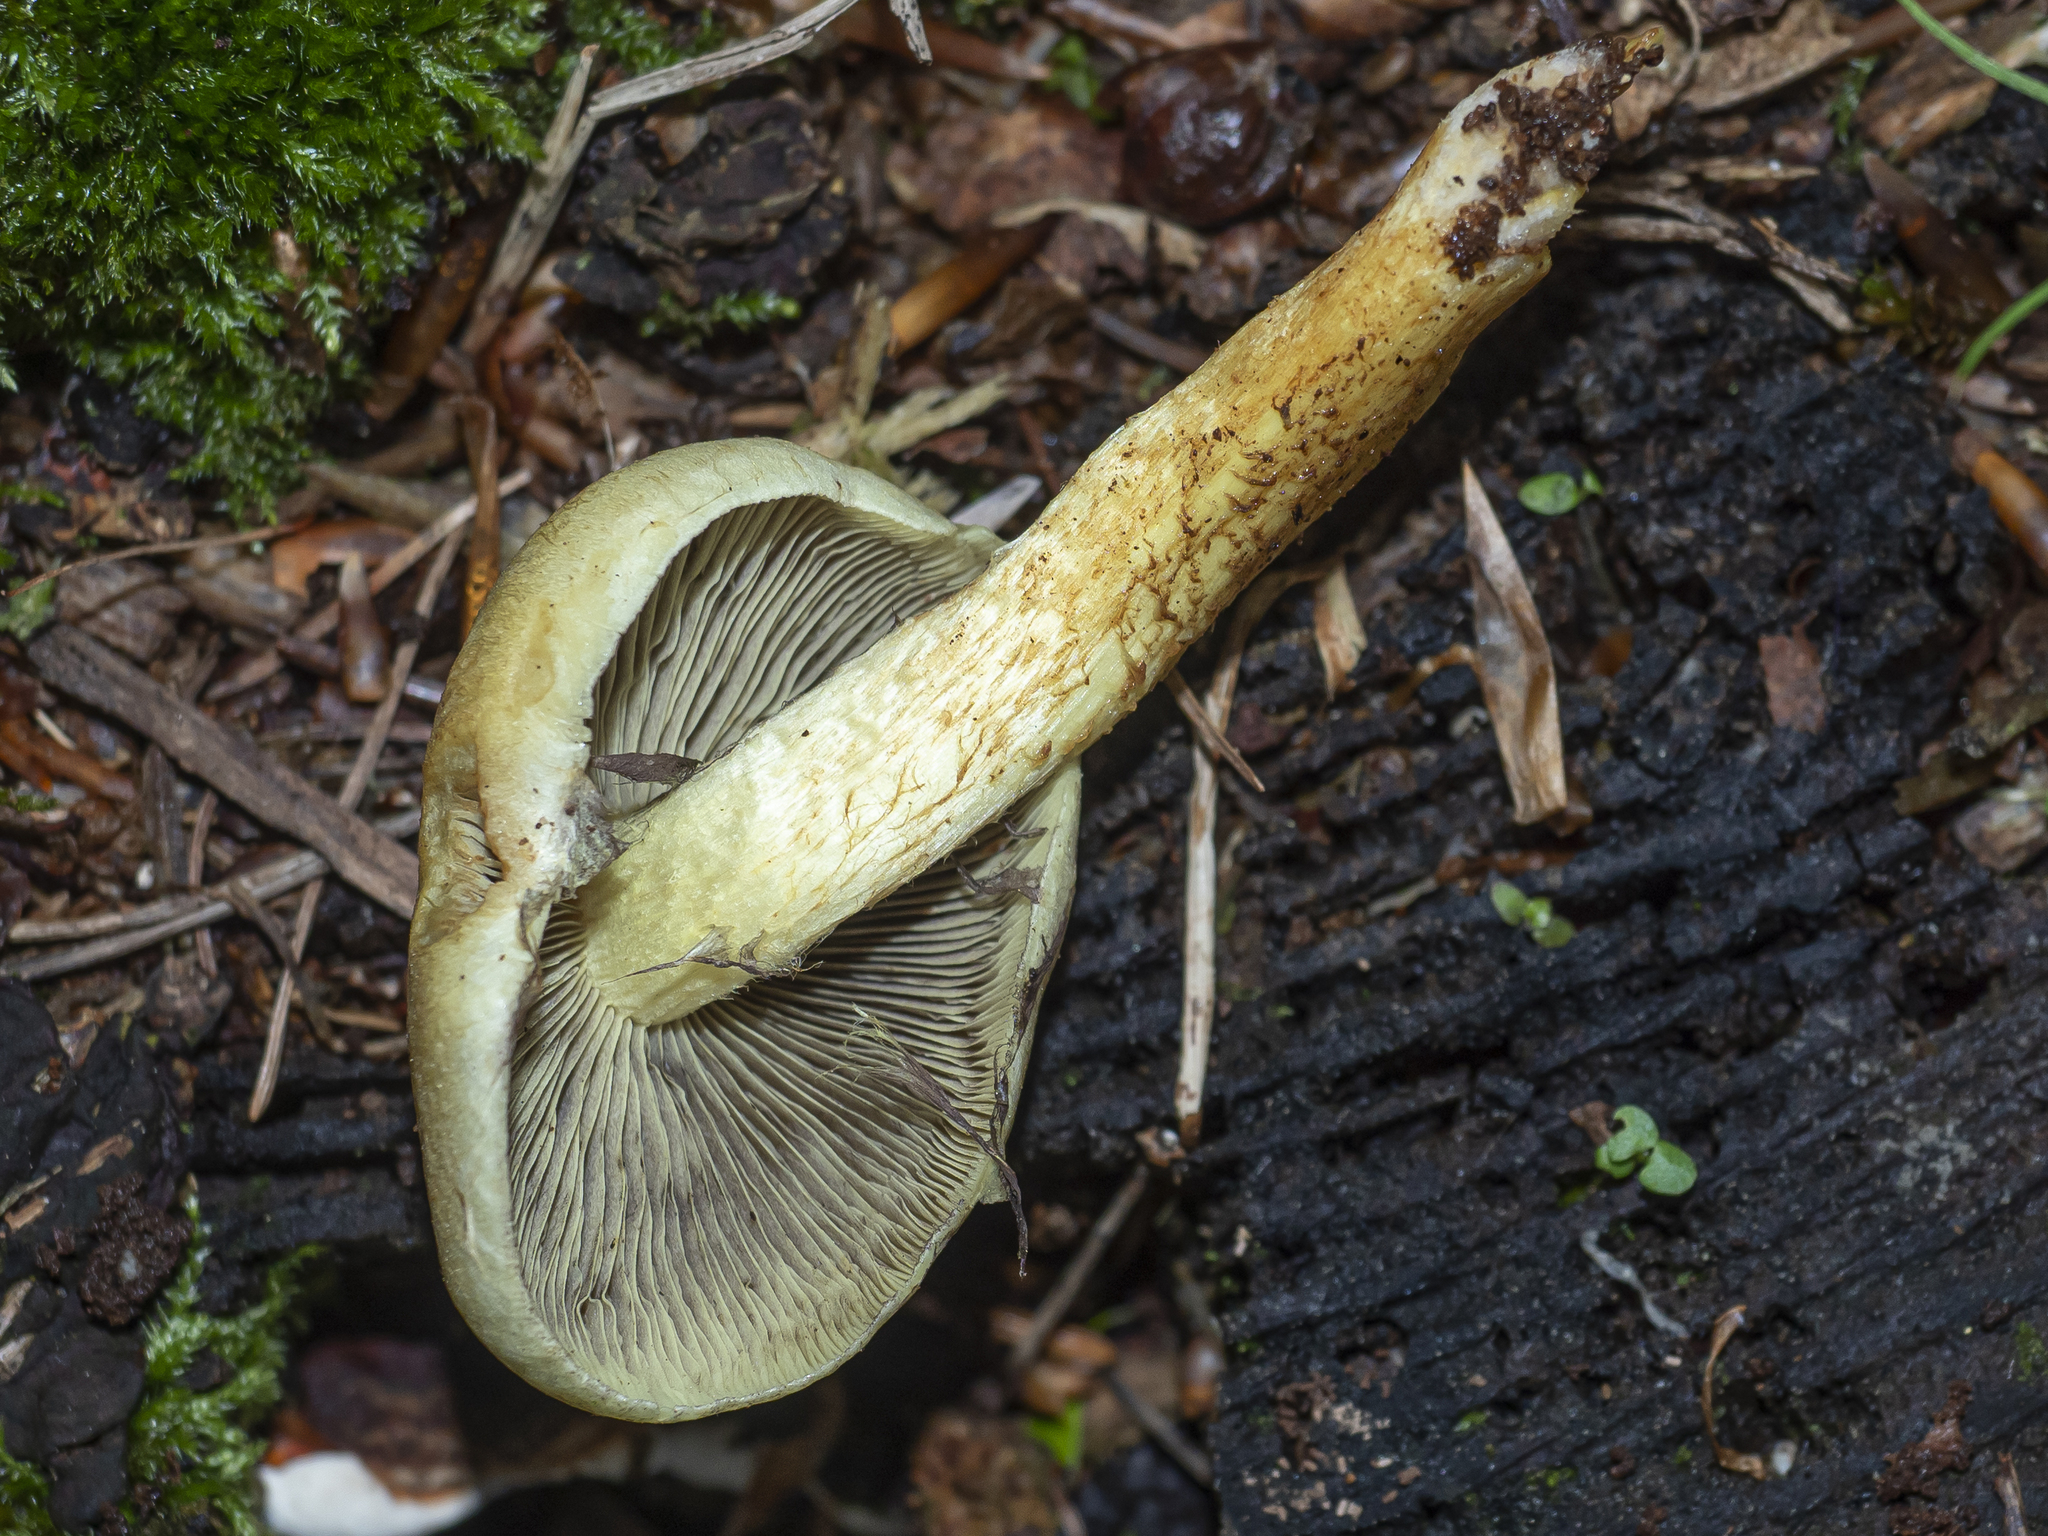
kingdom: Fungi
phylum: Basidiomycota
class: Agaricomycetes
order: Agaricales
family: Strophariaceae
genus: Hypholoma
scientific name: Hypholoma fasciculare
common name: Sulphur tuft
